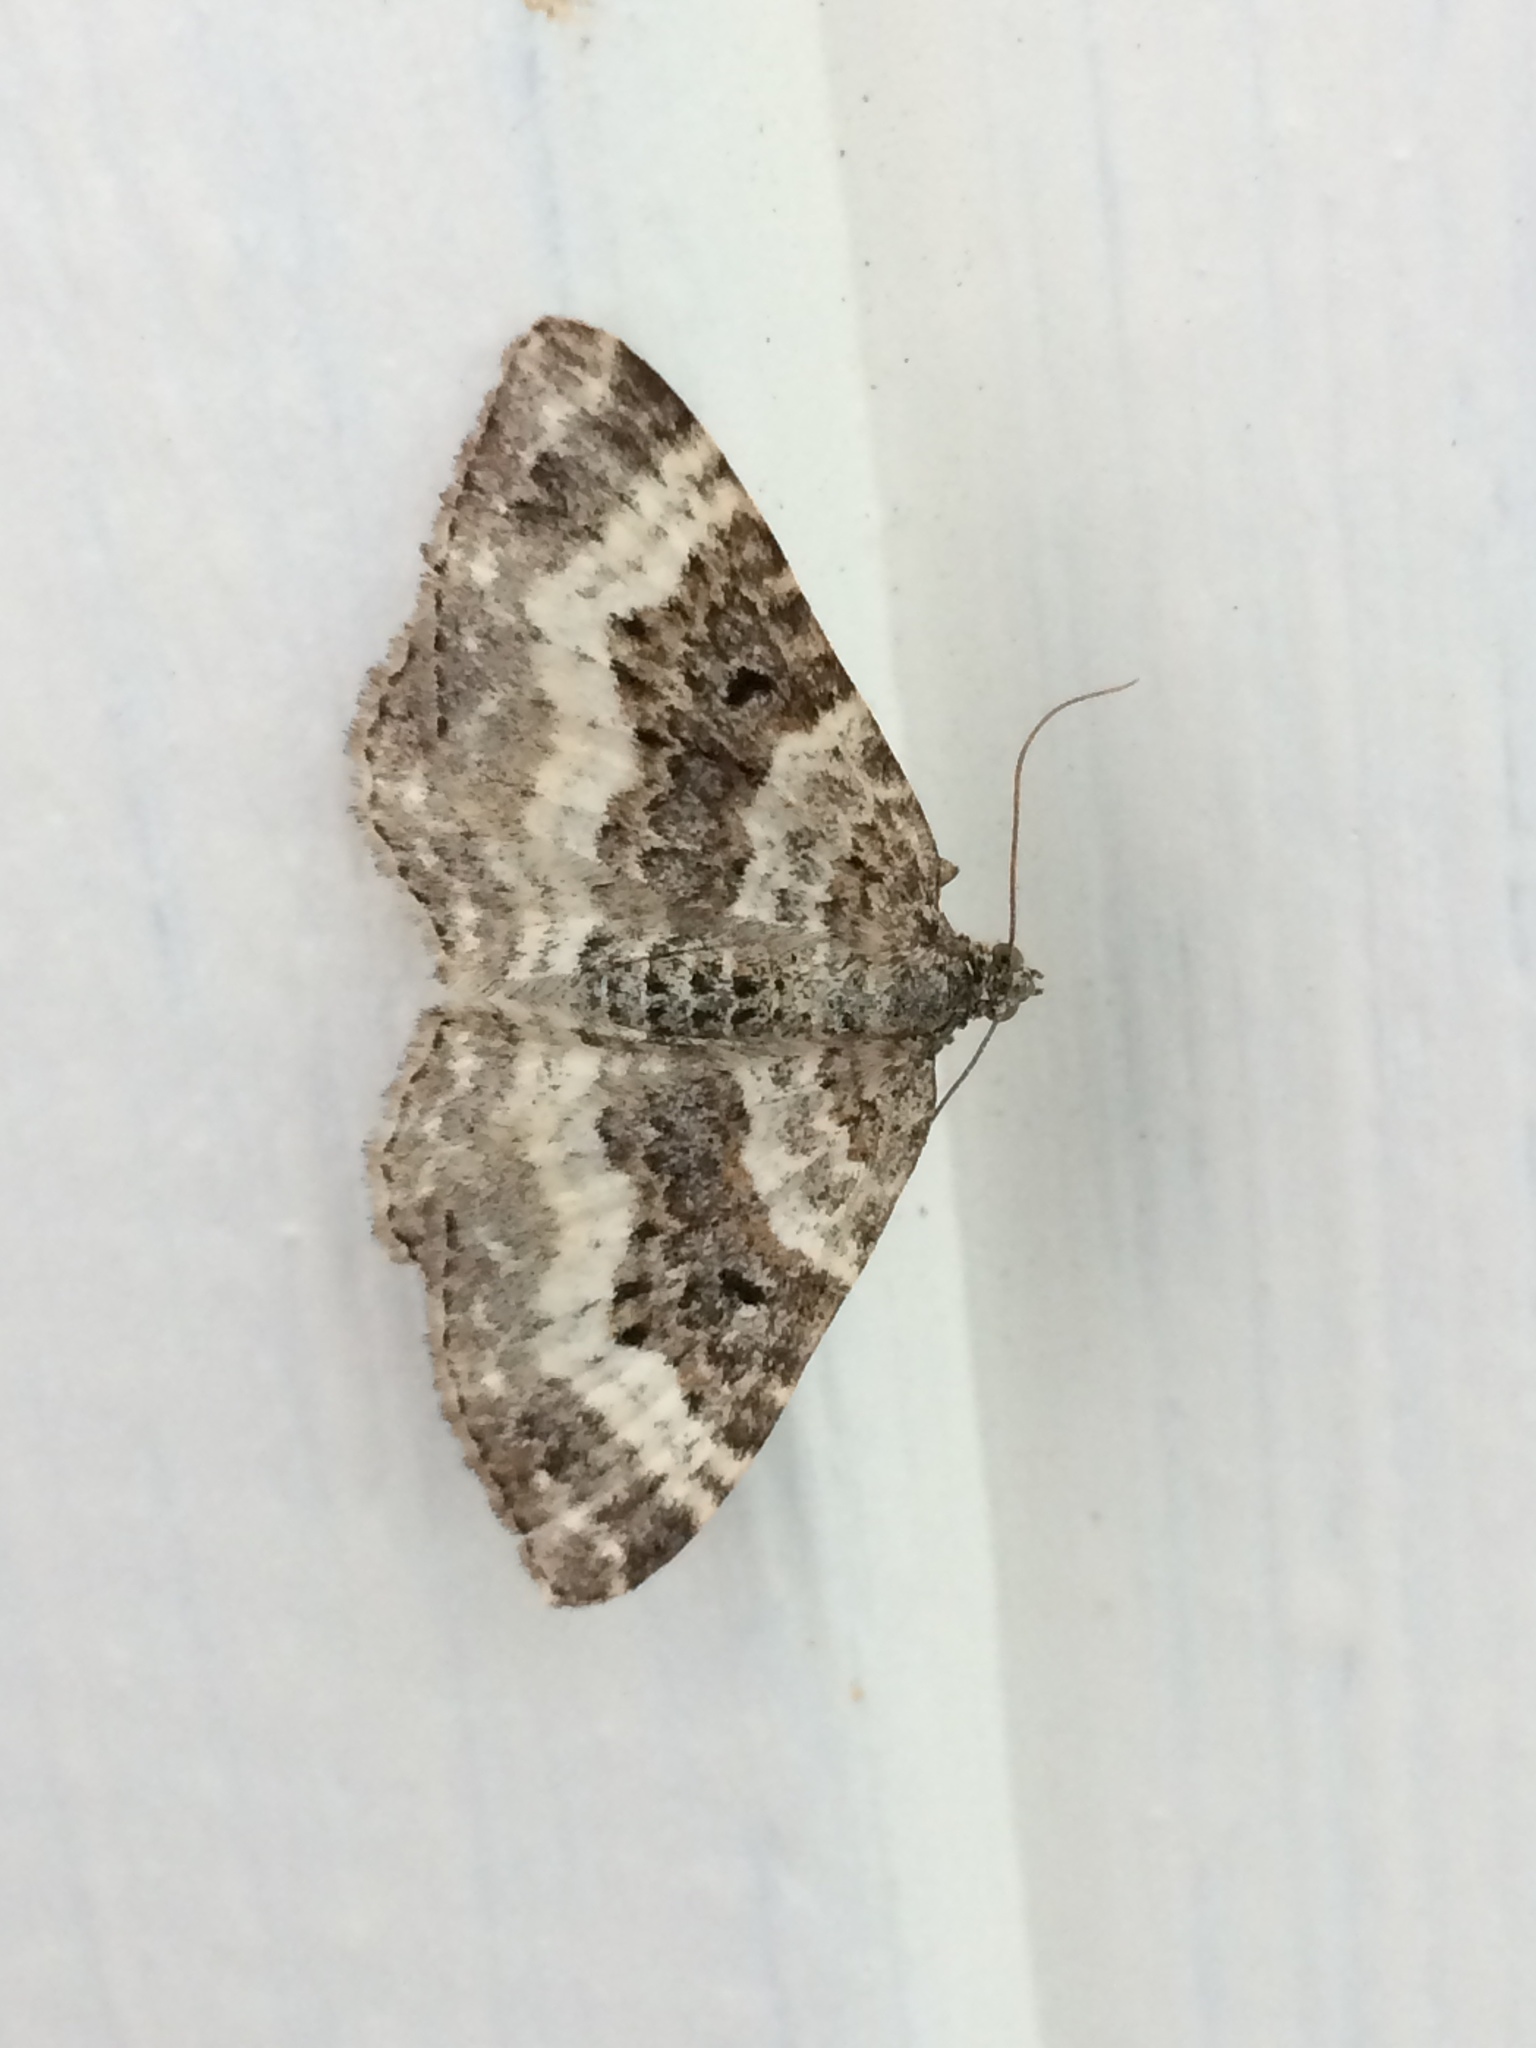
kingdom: Animalia
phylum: Arthropoda
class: Insecta
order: Lepidoptera
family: Geometridae
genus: Epirrhoe
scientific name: Epirrhoe alternata
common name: Common carpet
